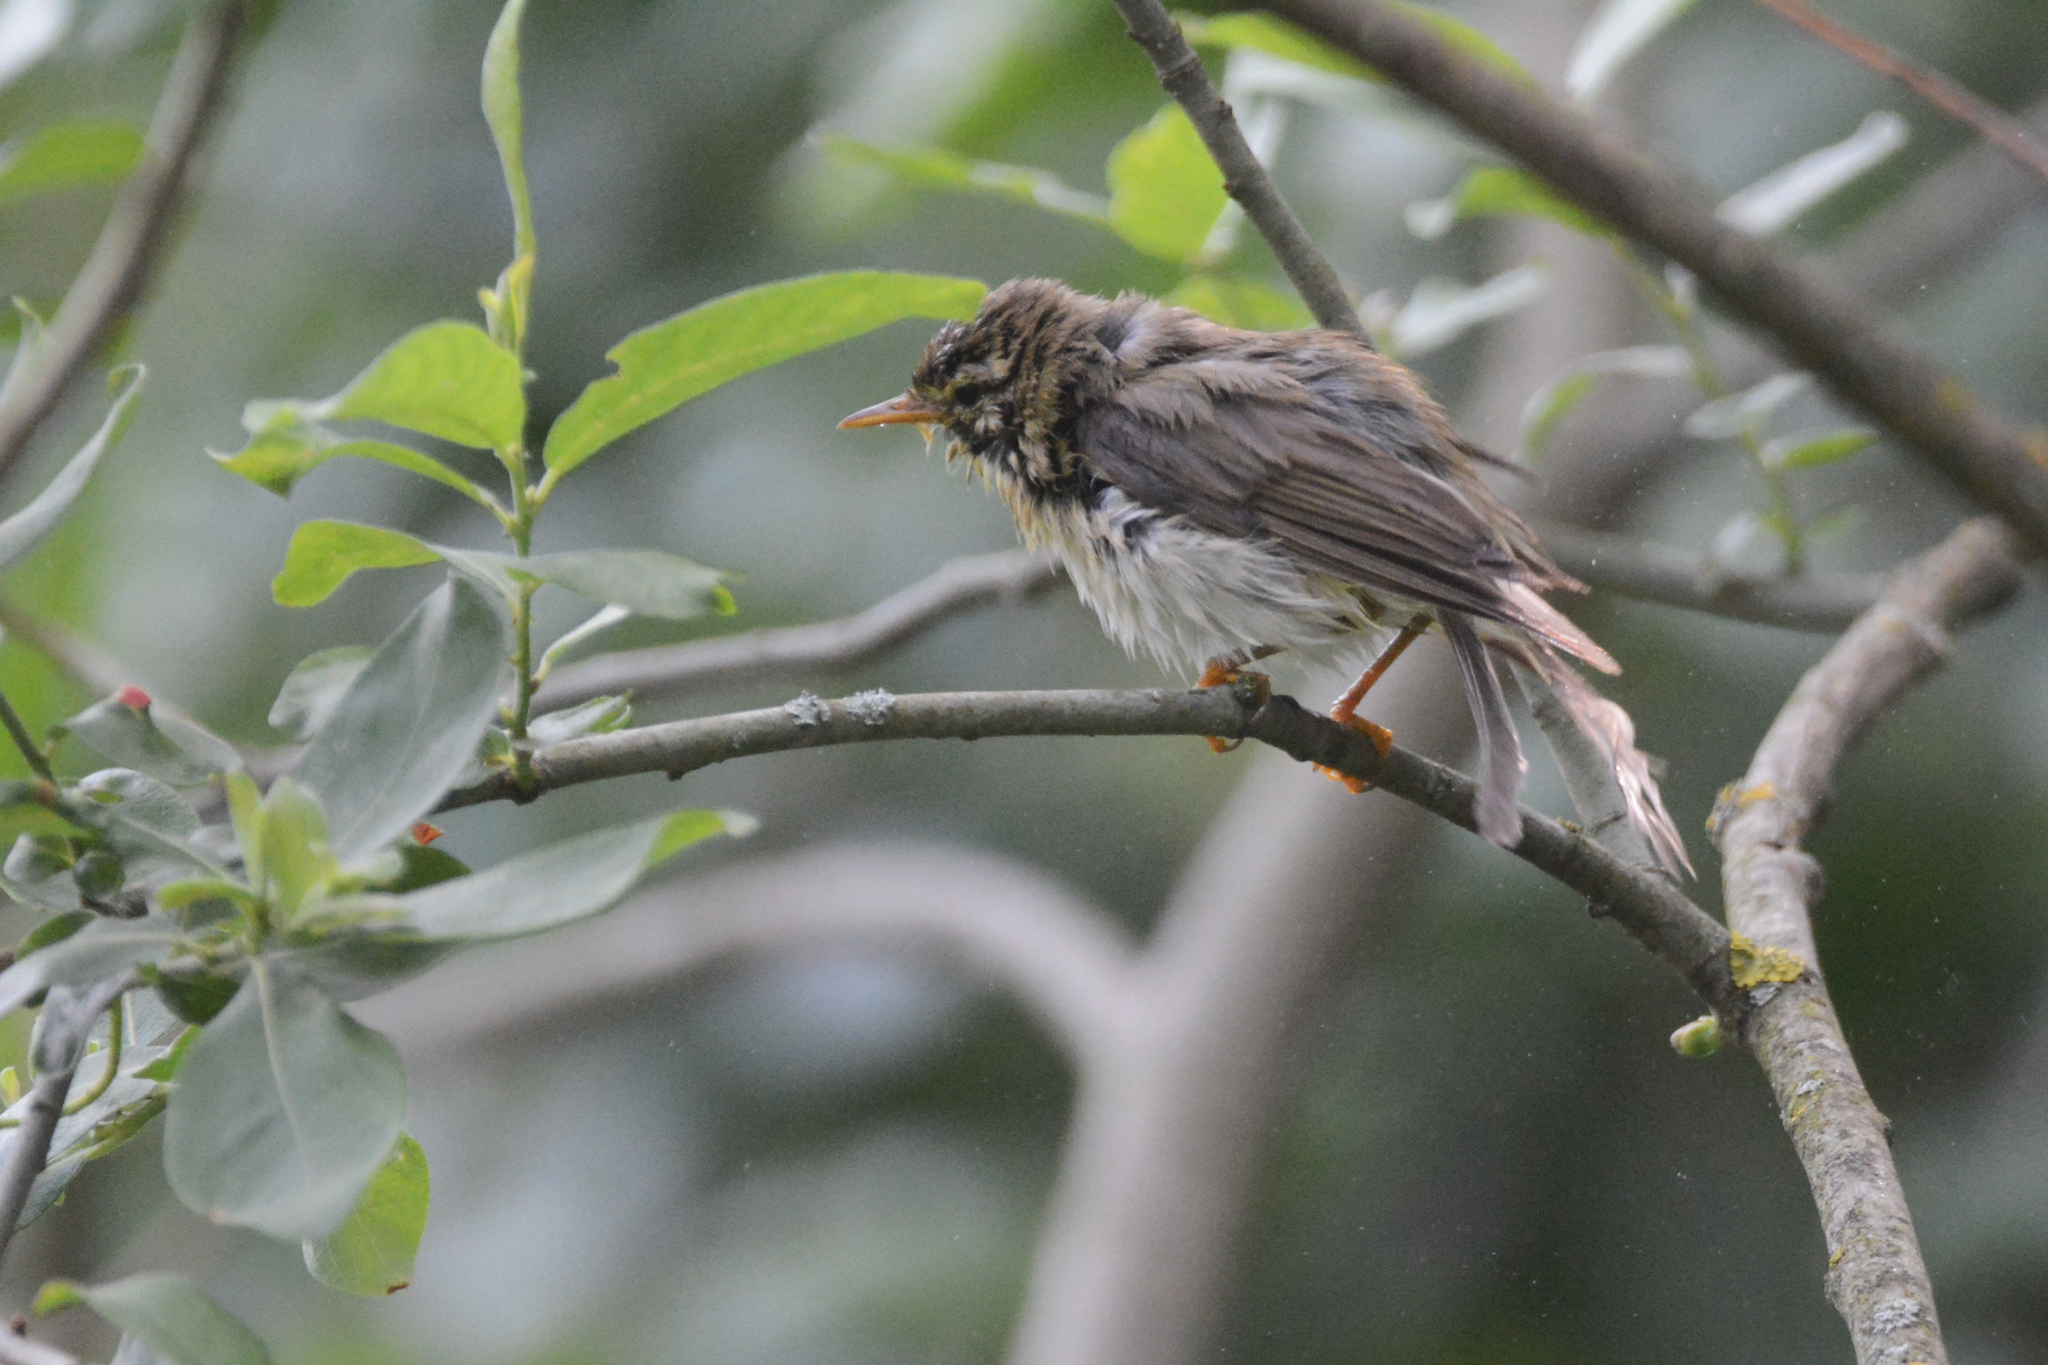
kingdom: Animalia
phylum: Chordata
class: Aves
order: Passeriformes
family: Phylloscopidae
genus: Phylloscopus
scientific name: Phylloscopus trochilus
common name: Willow warbler
